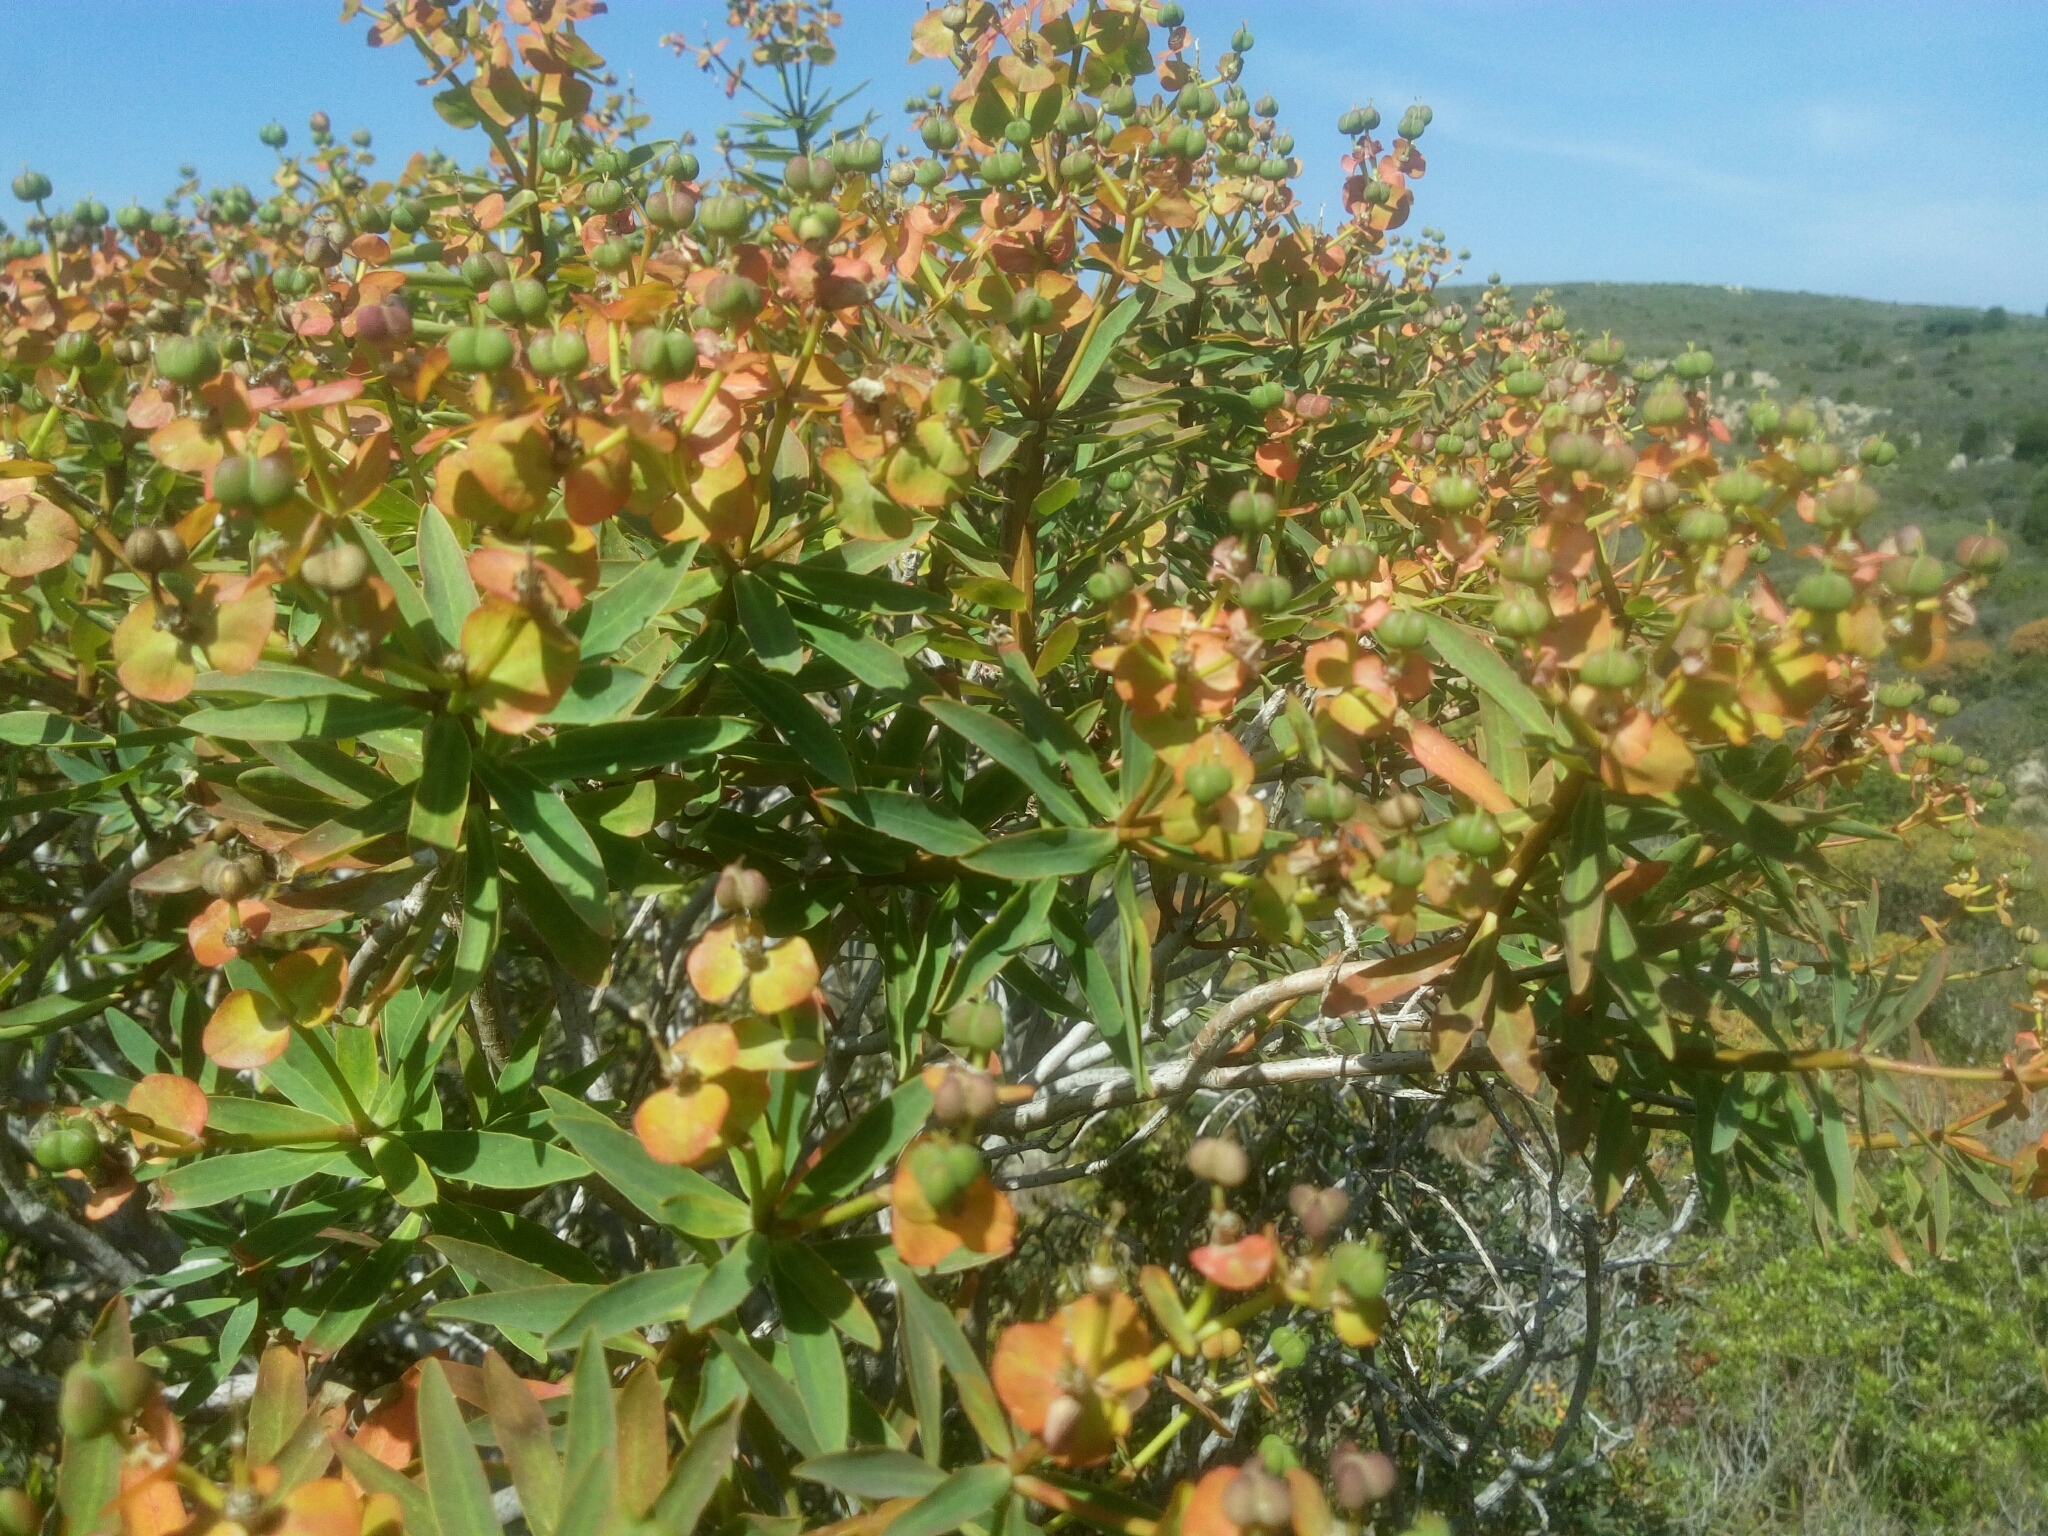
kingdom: Plantae
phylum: Tracheophyta
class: Magnoliopsida
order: Malpighiales
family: Euphorbiaceae
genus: Euphorbia
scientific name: Euphorbia dendroides
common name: Tree spurge
